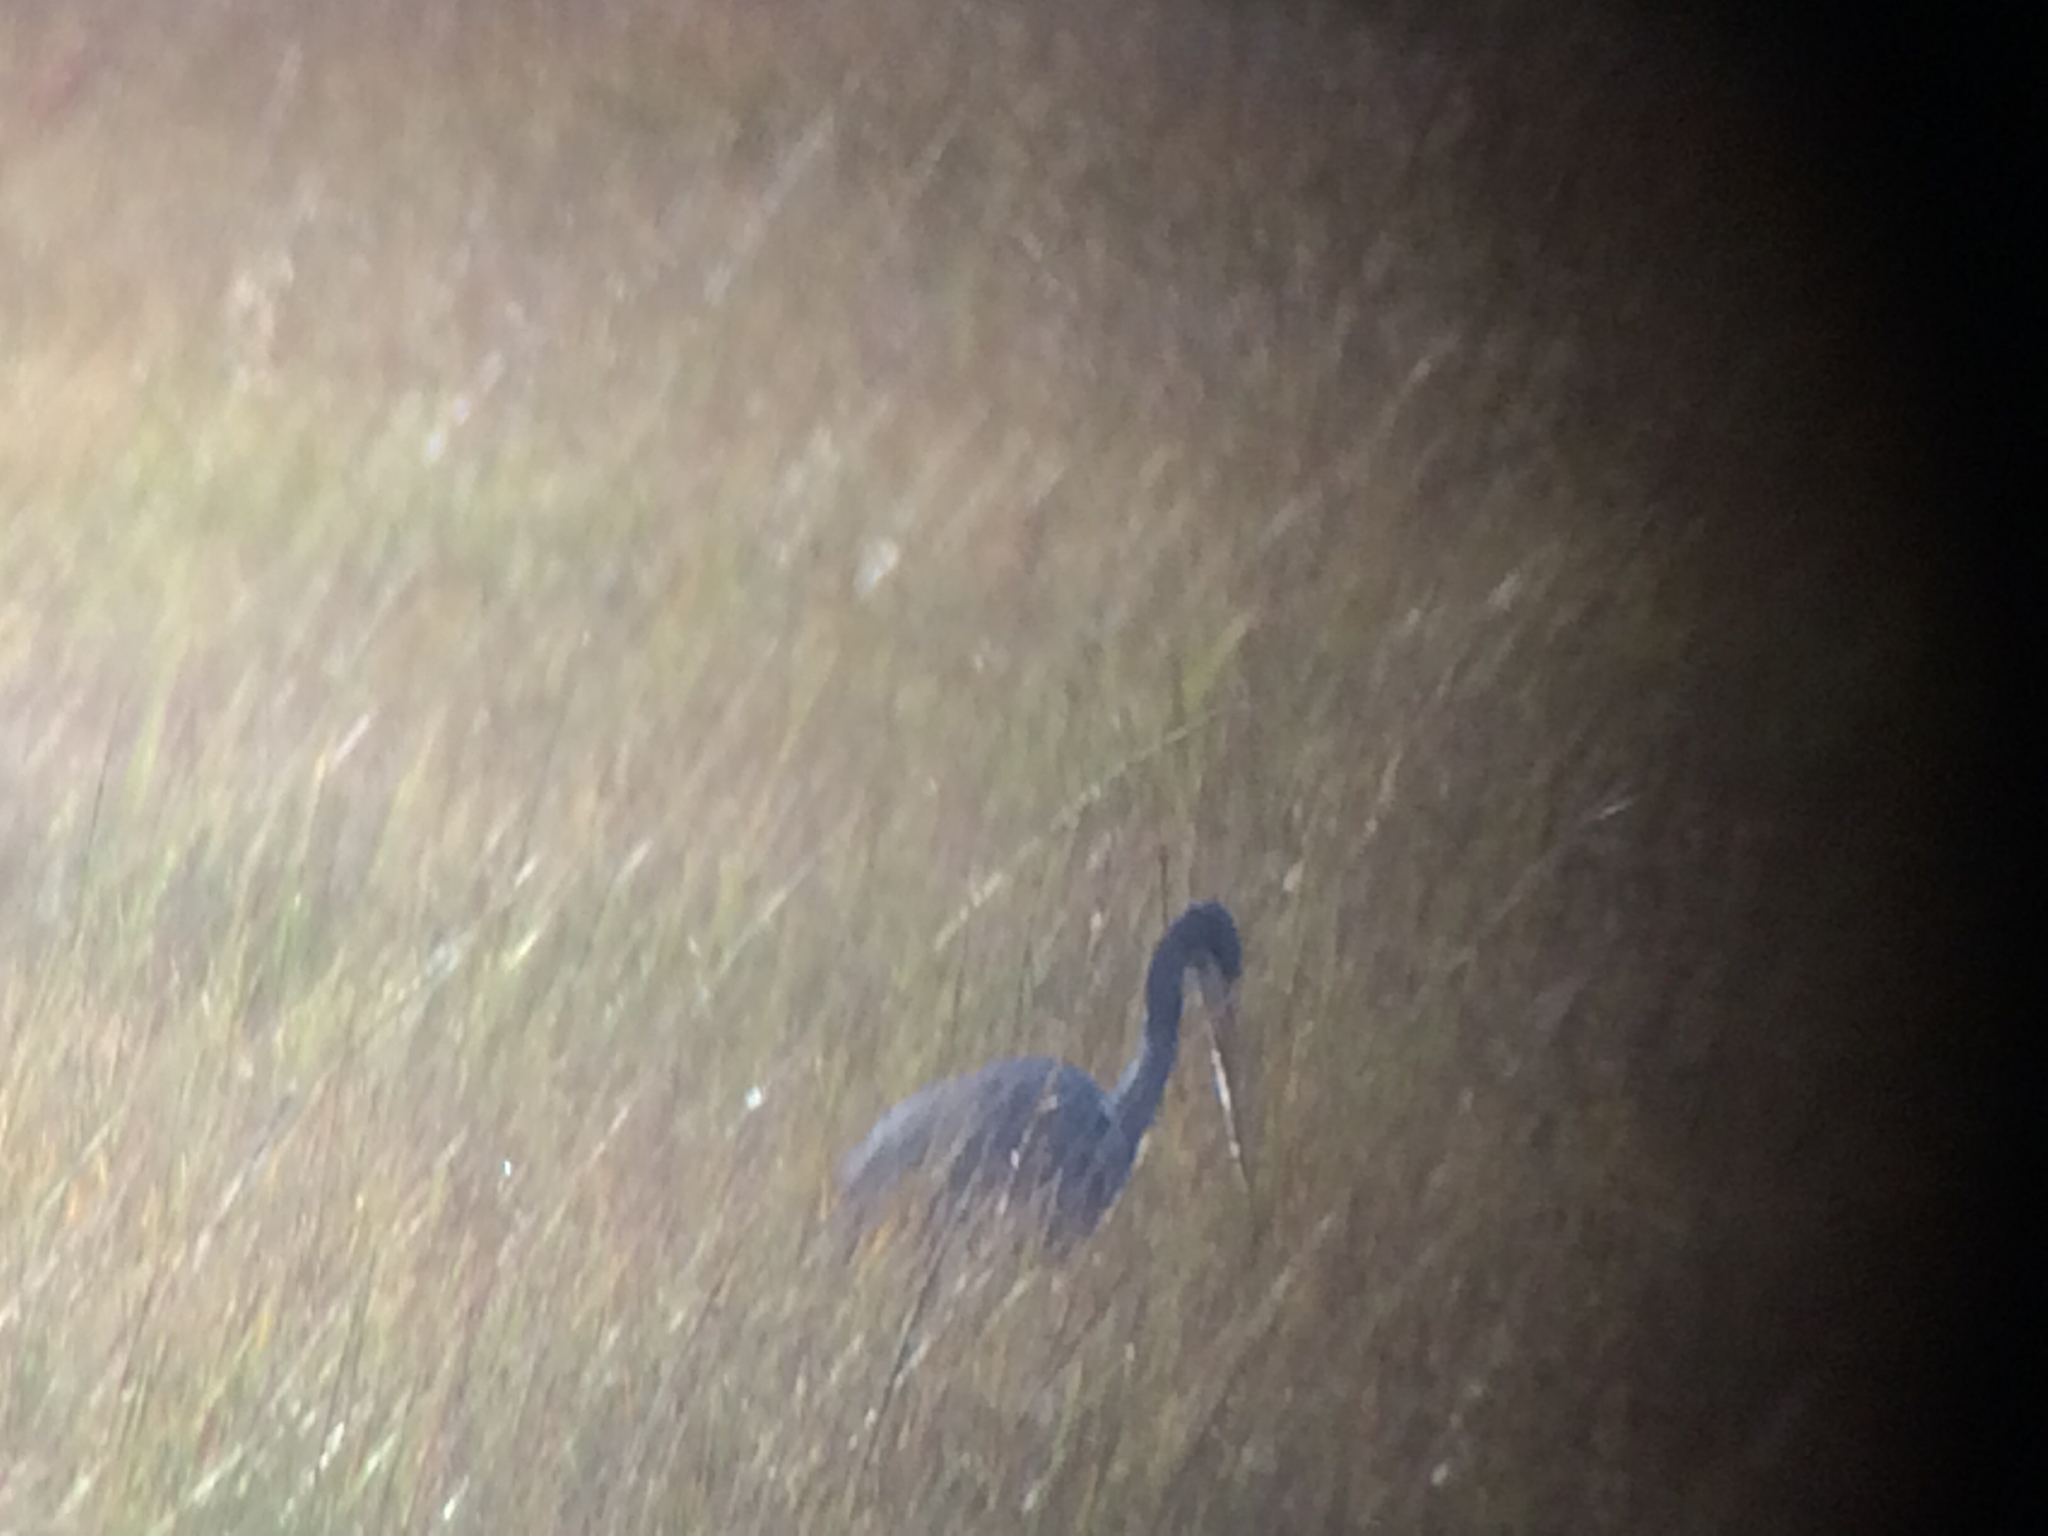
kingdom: Animalia
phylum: Chordata
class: Aves
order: Pelecaniformes
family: Ardeidae
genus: Egretta
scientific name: Egretta tricolor
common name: Tricolored heron
